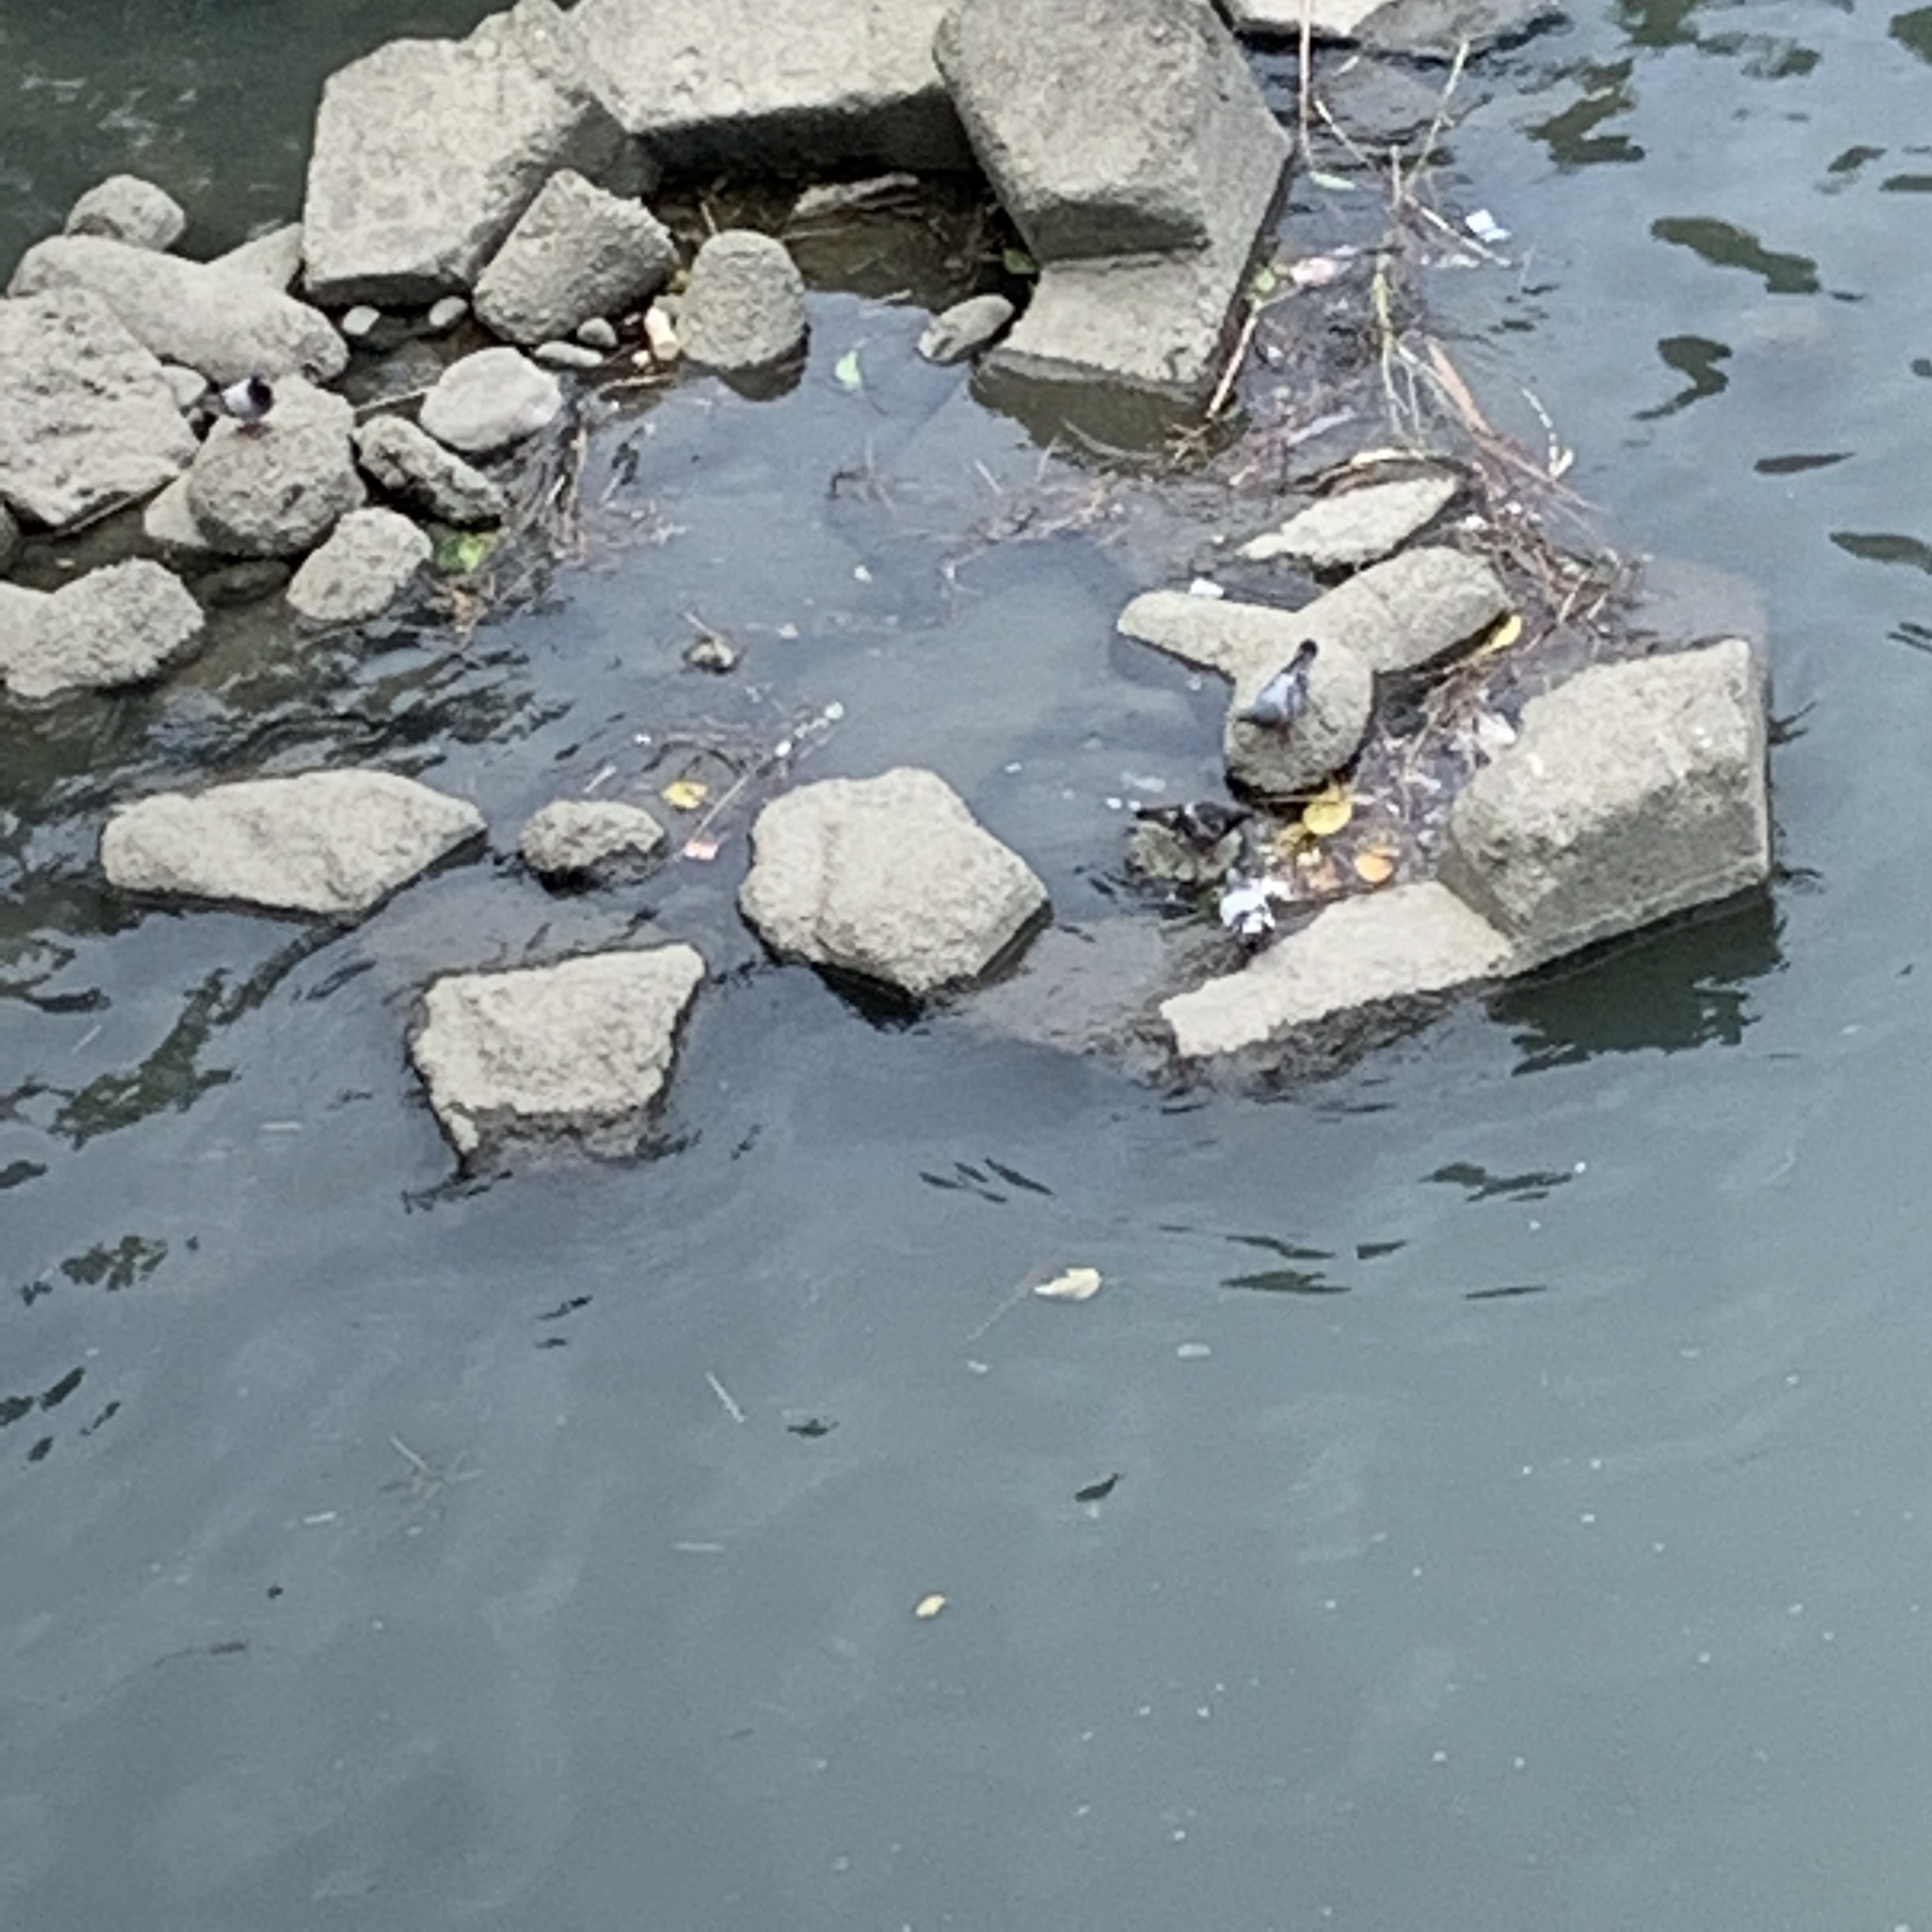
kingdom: Animalia
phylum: Chordata
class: Aves
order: Columbiformes
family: Columbidae
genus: Columba
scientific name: Columba livia
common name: Rock pigeon
